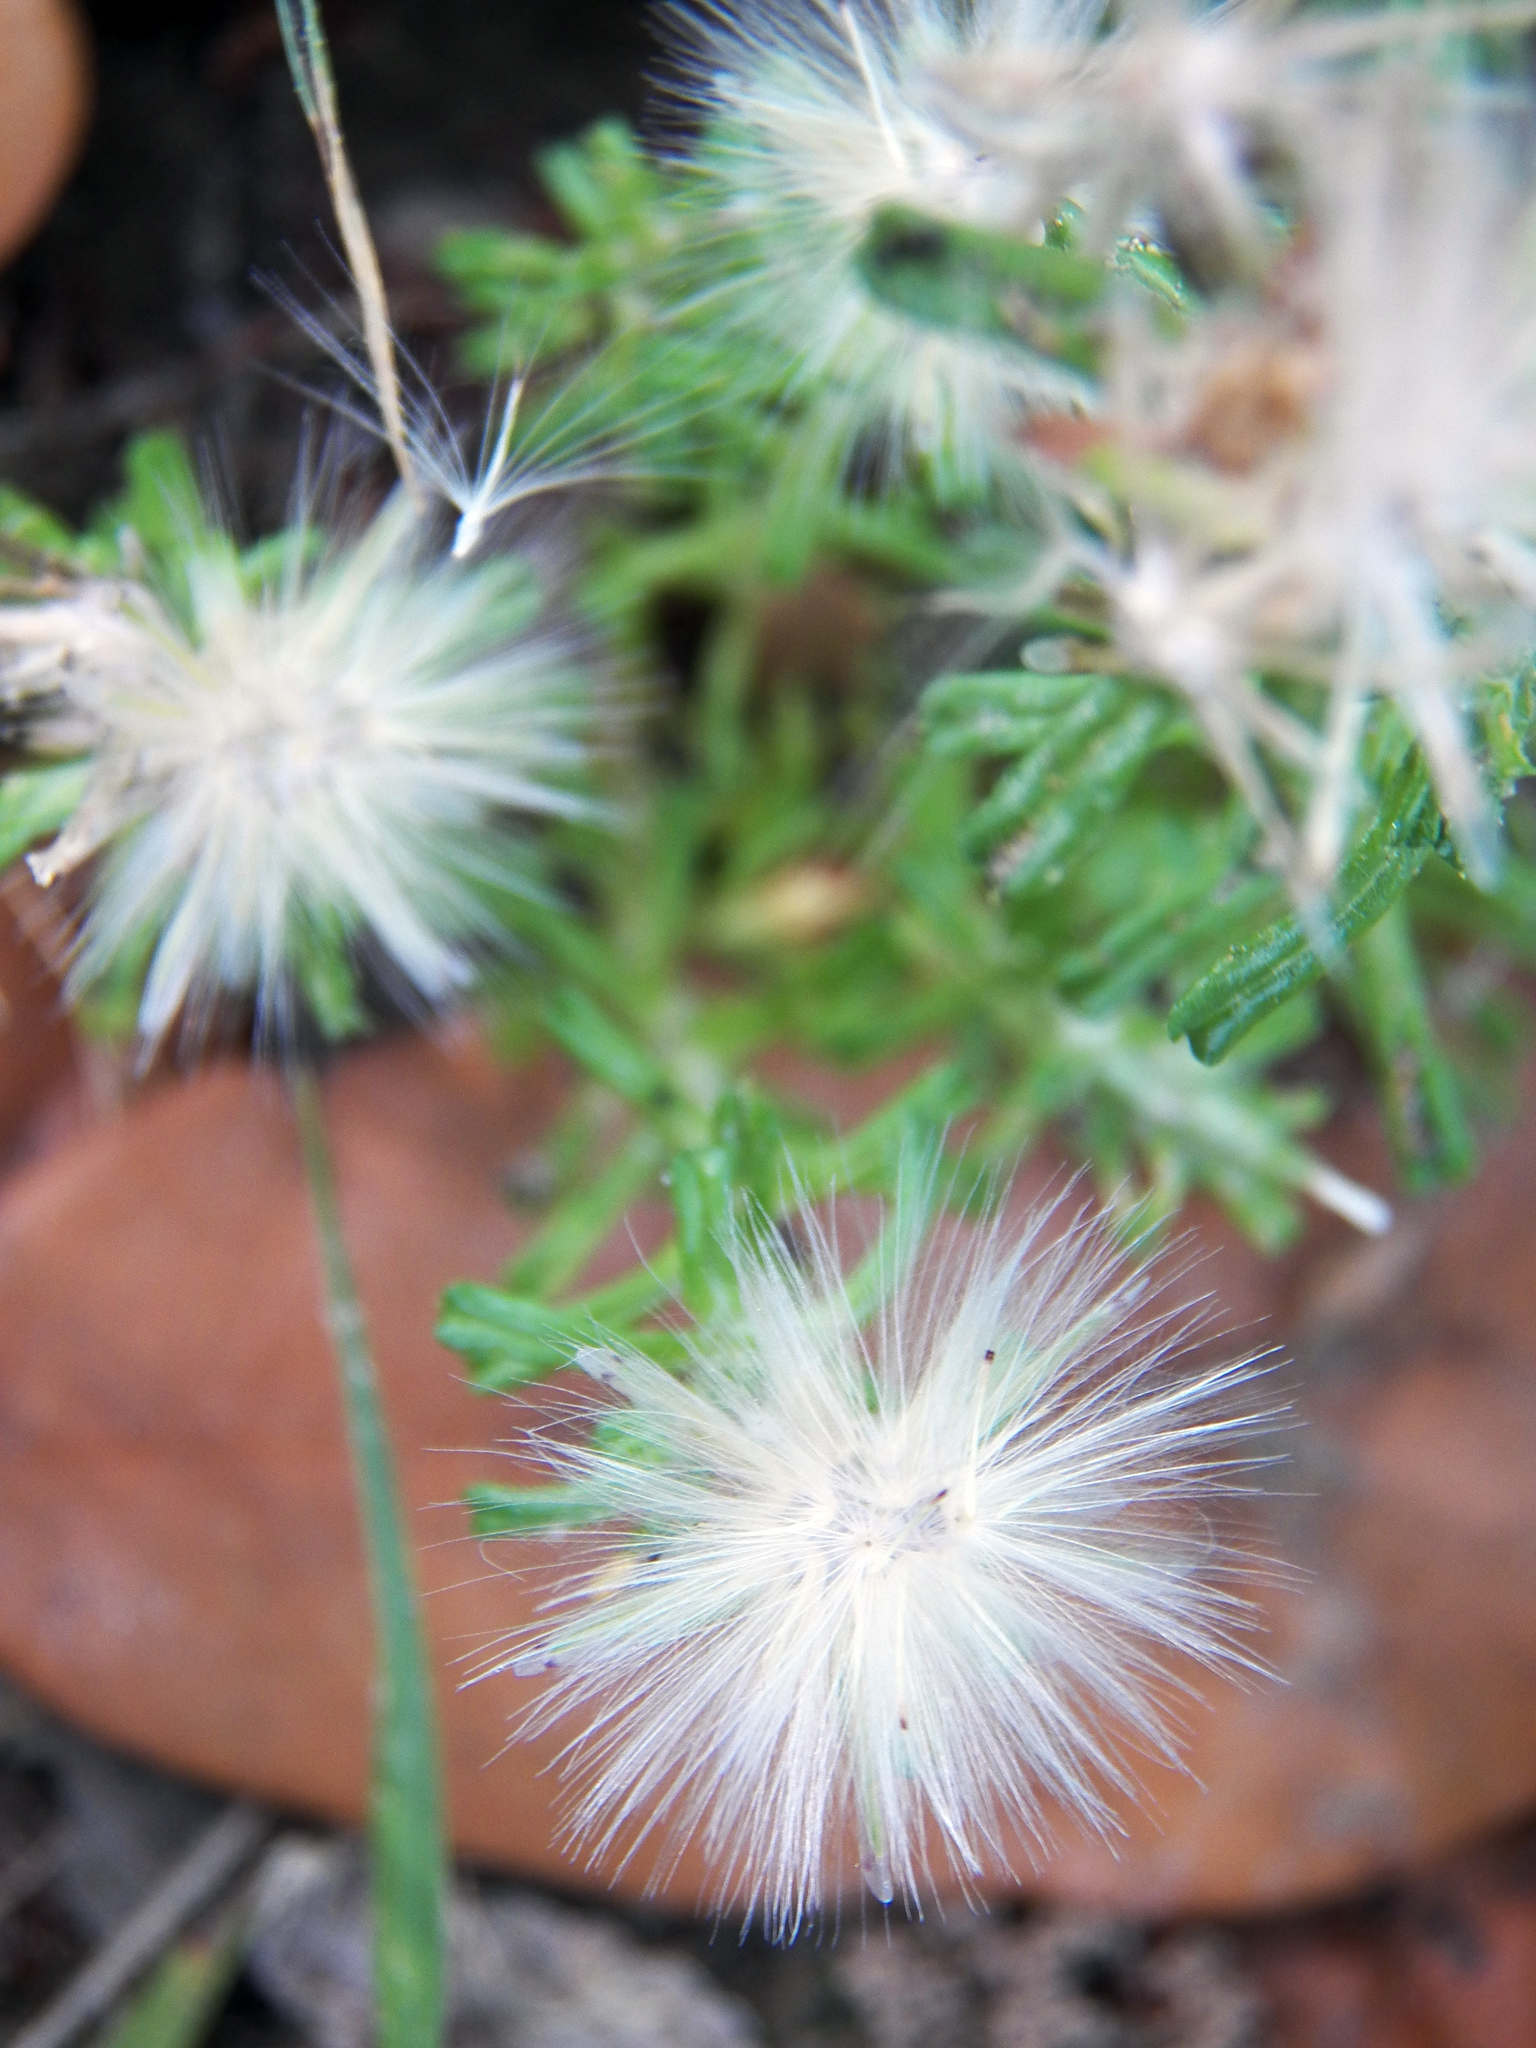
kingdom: Plantae
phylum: Tracheophyta
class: Magnoliopsida
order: Asterales
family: Asteraceae
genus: Facelis
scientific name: Facelis retusa
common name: Annual trampweed
